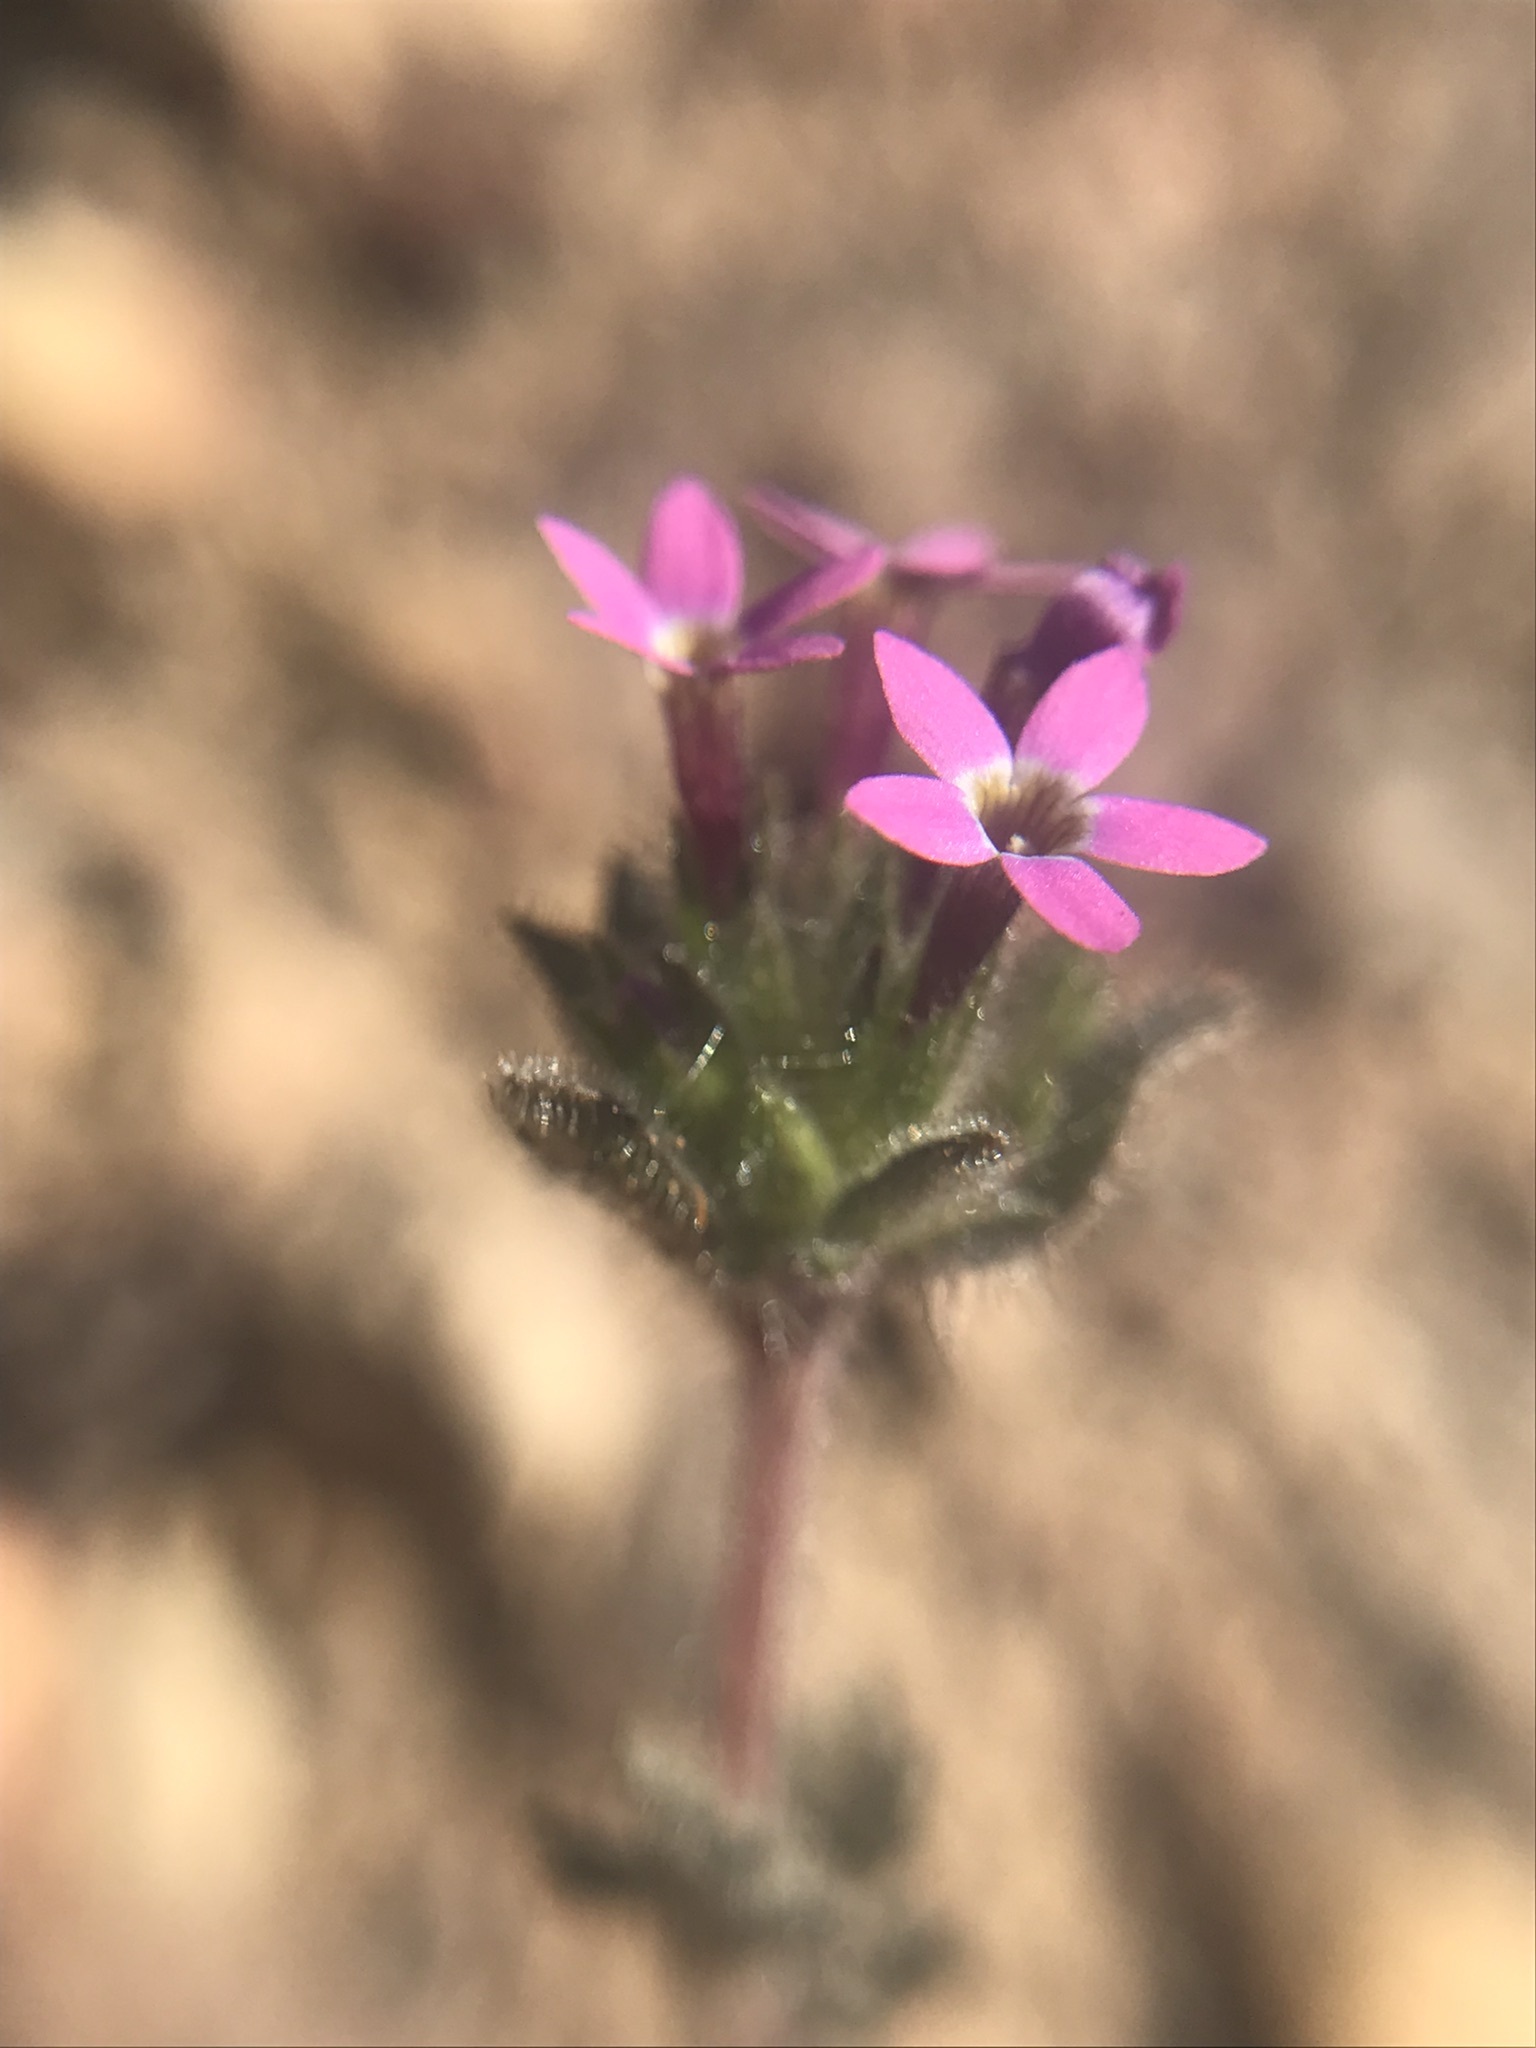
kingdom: Plantae
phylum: Tracheophyta
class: Magnoliopsida
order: Ericales
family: Polemoniaceae
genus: Collomia
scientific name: Collomia heterophylla
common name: Variable-leaved collomia
